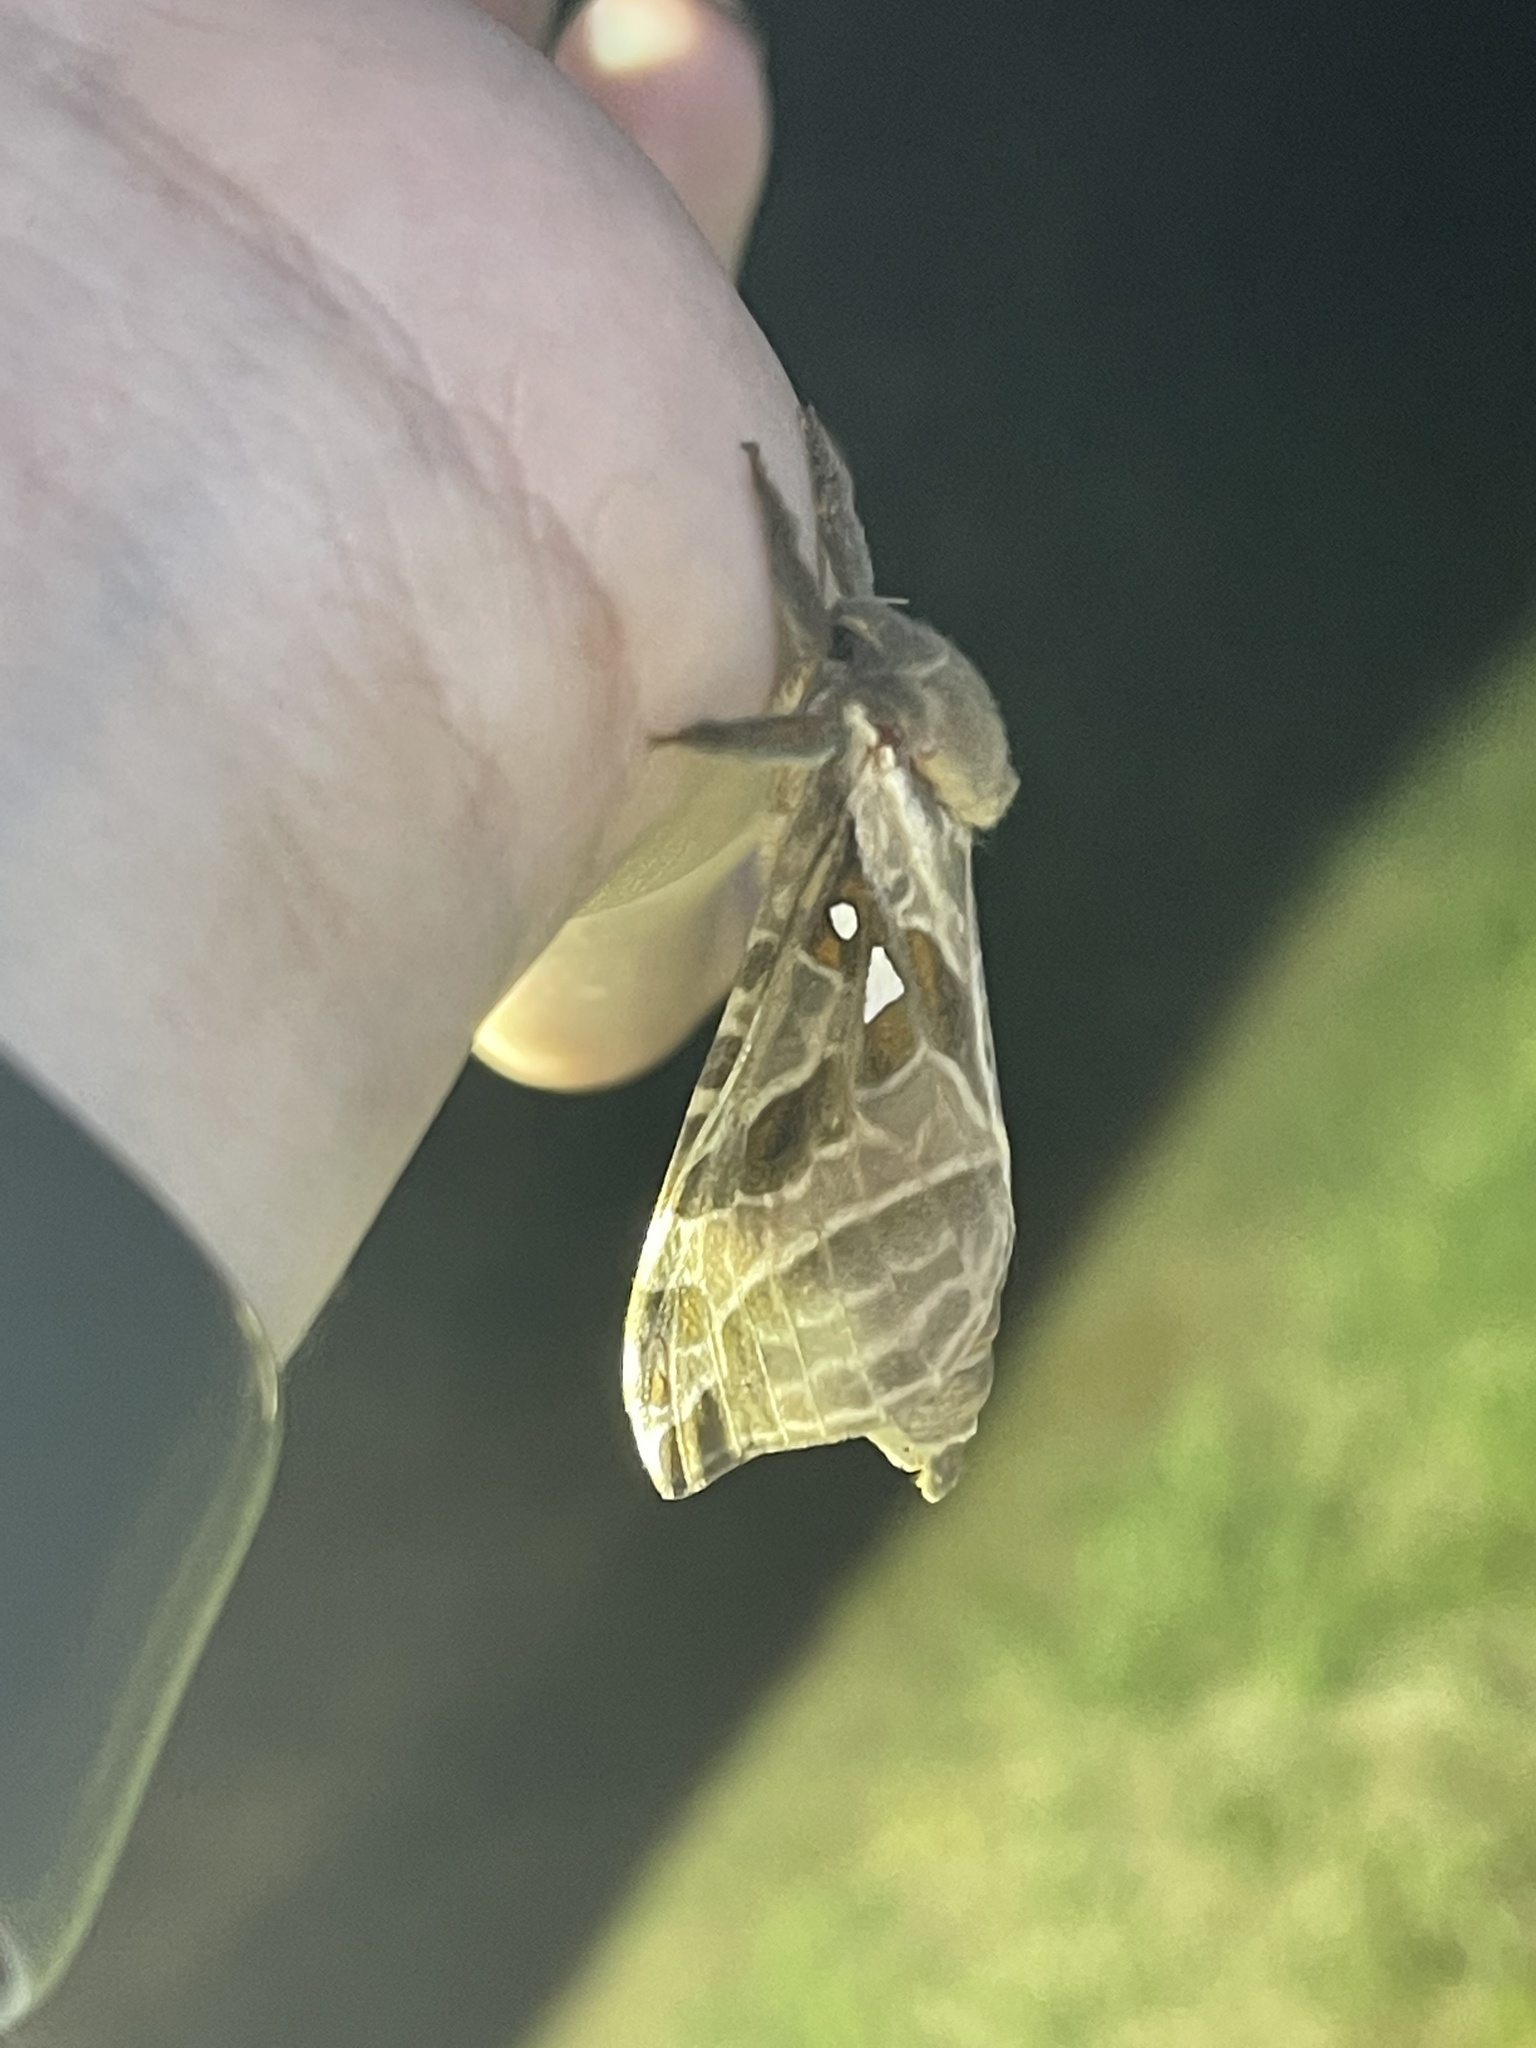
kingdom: Animalia
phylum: Arthropoda
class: Insecta
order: Lepidoptera
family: Hepialidae
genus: Sthenopis
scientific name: Sthenopis argenteomaculatus
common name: Silver-spotted ghost moth
